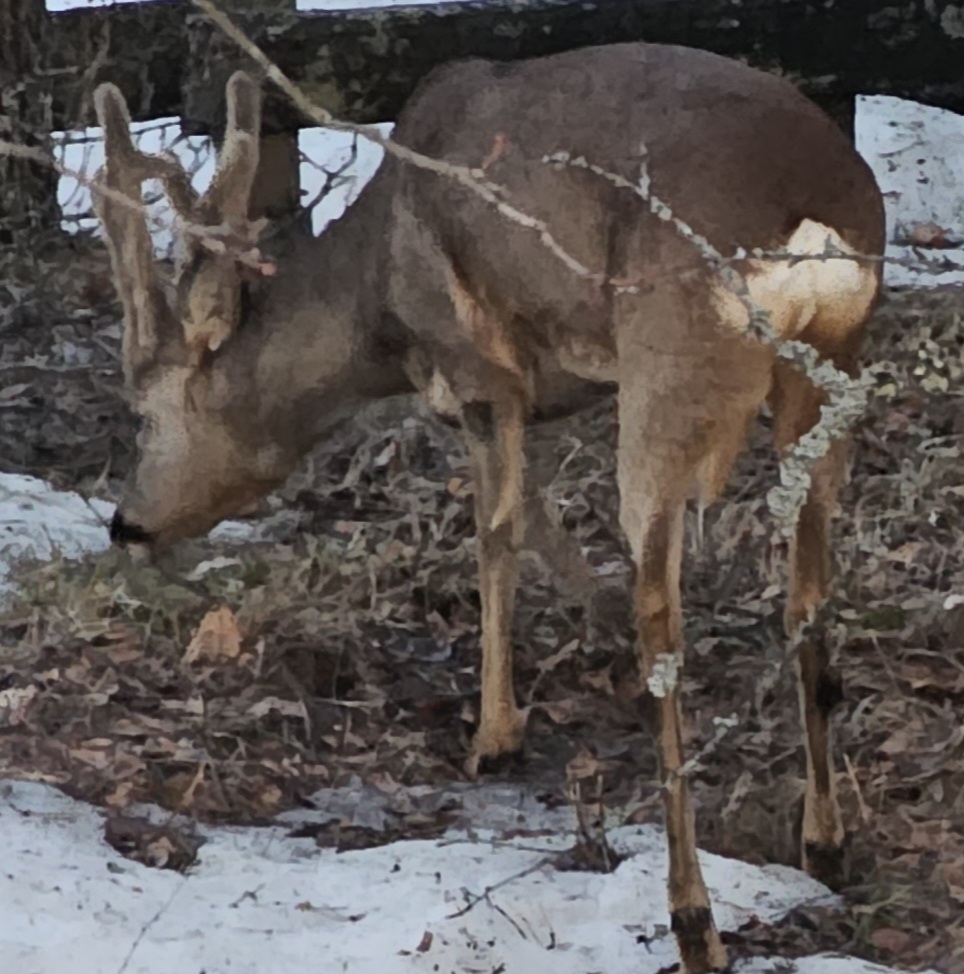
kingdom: Animalia
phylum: Chordata
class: Mammalia
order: Artiodactyla
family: Cervidae
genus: Capreolus
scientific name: Capreolus capreolus
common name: Western roe deer
